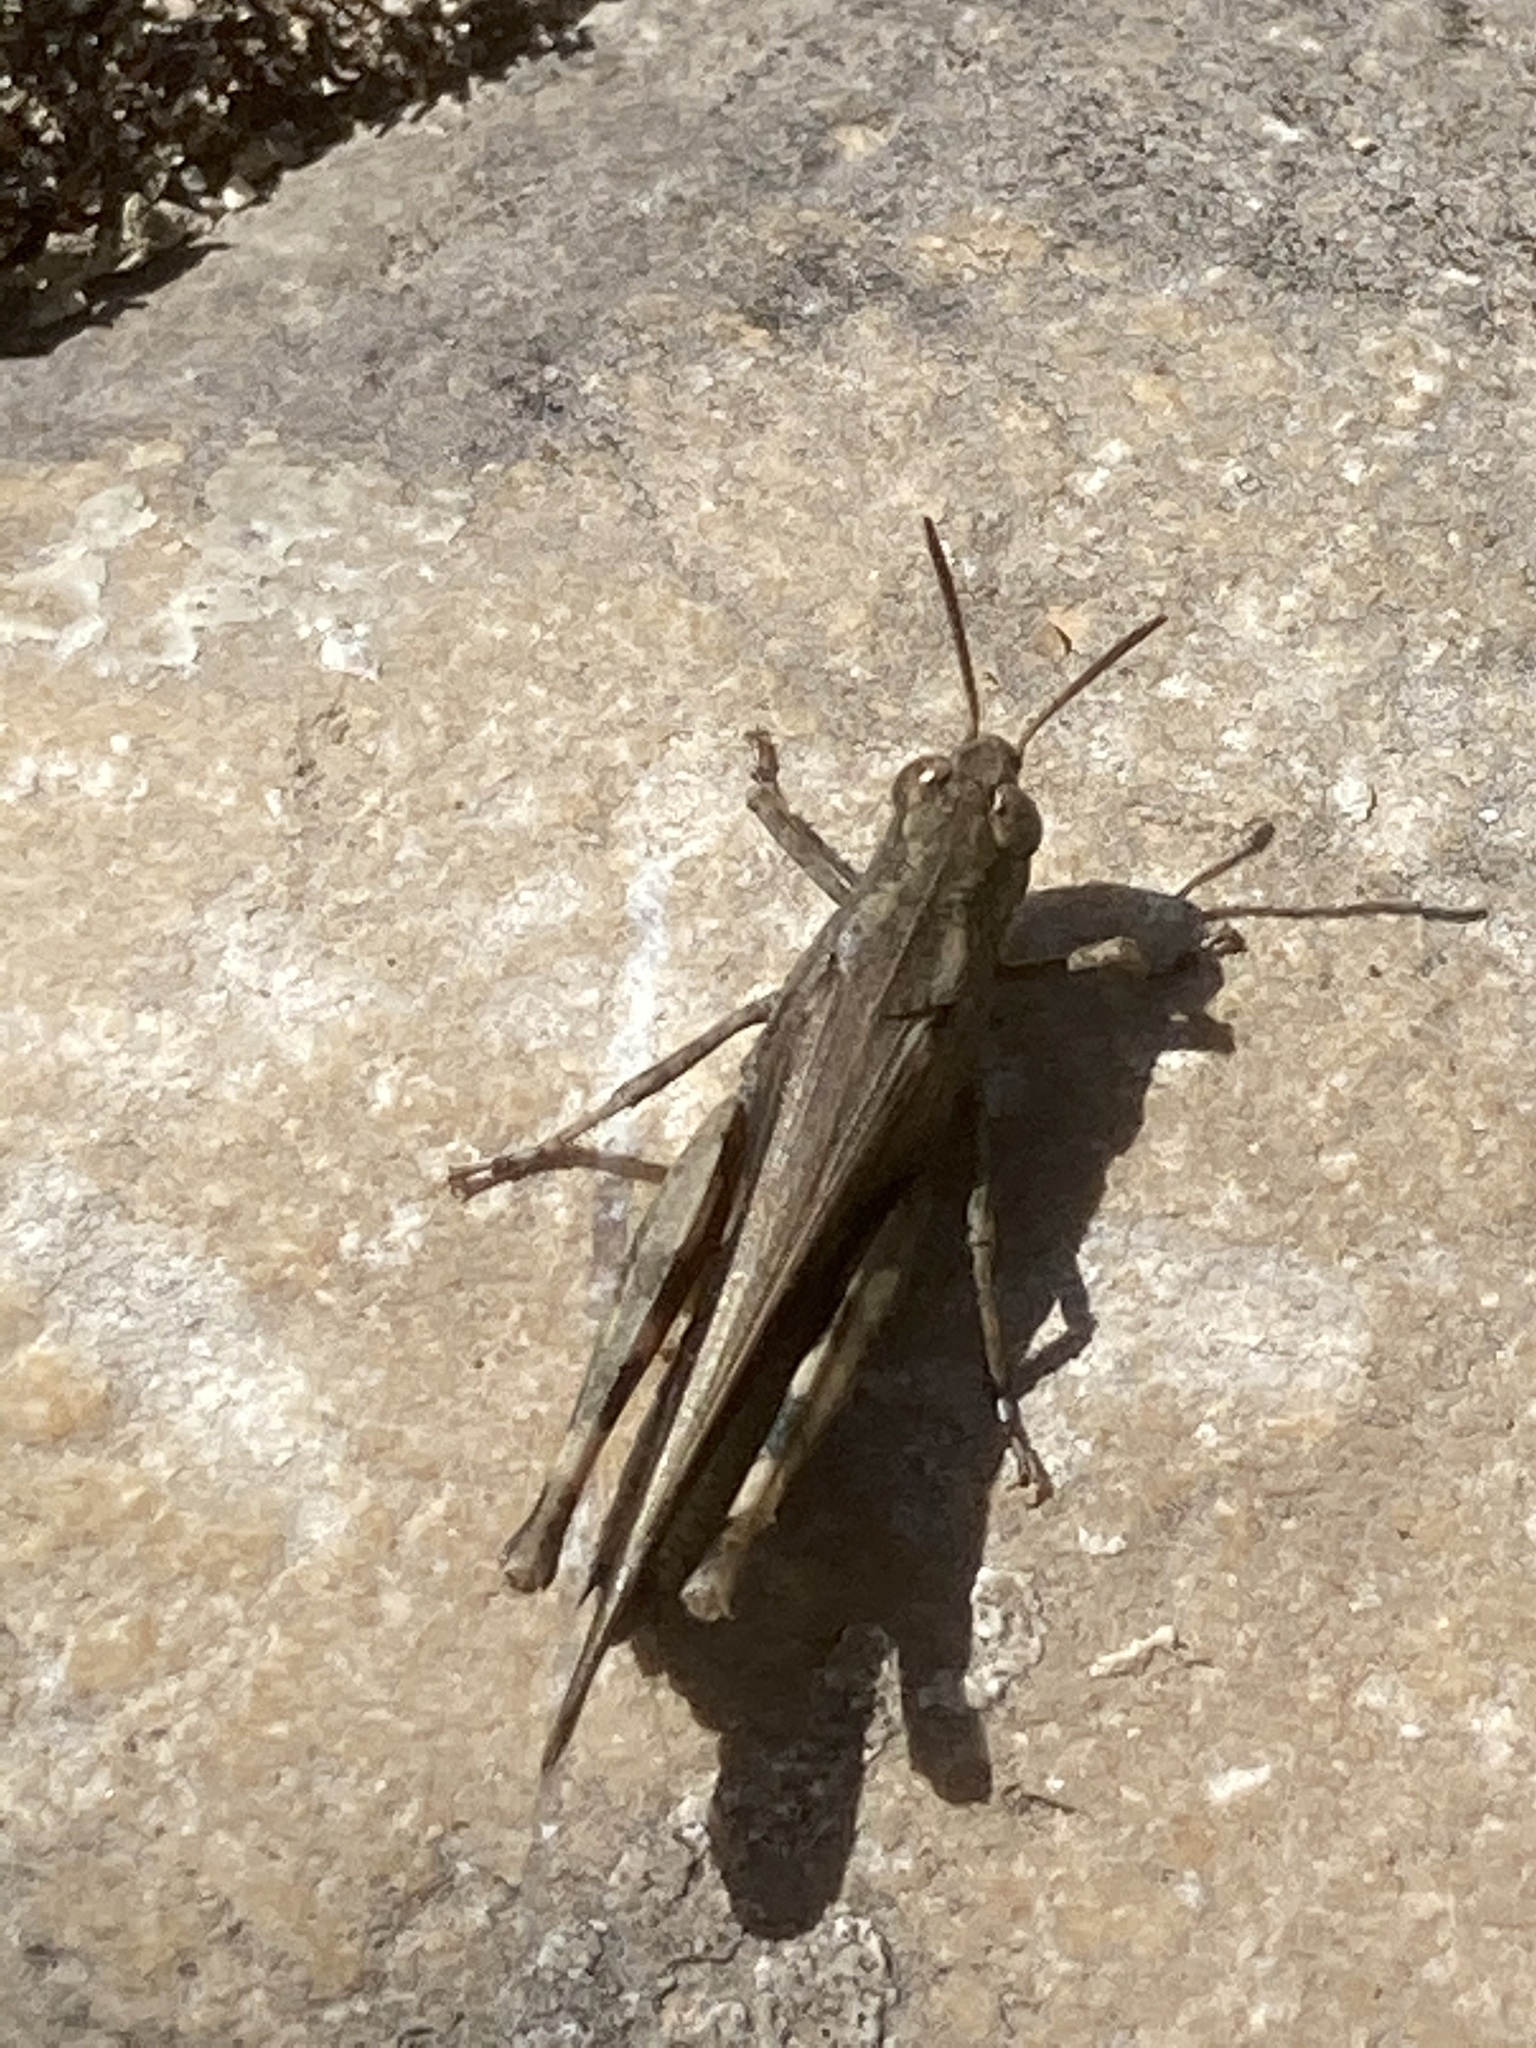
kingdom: Animalia
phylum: Arthropoda
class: Insecta
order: Orthoptera
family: Acrididae
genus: Aiolopus
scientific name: Aiolopus strepens
